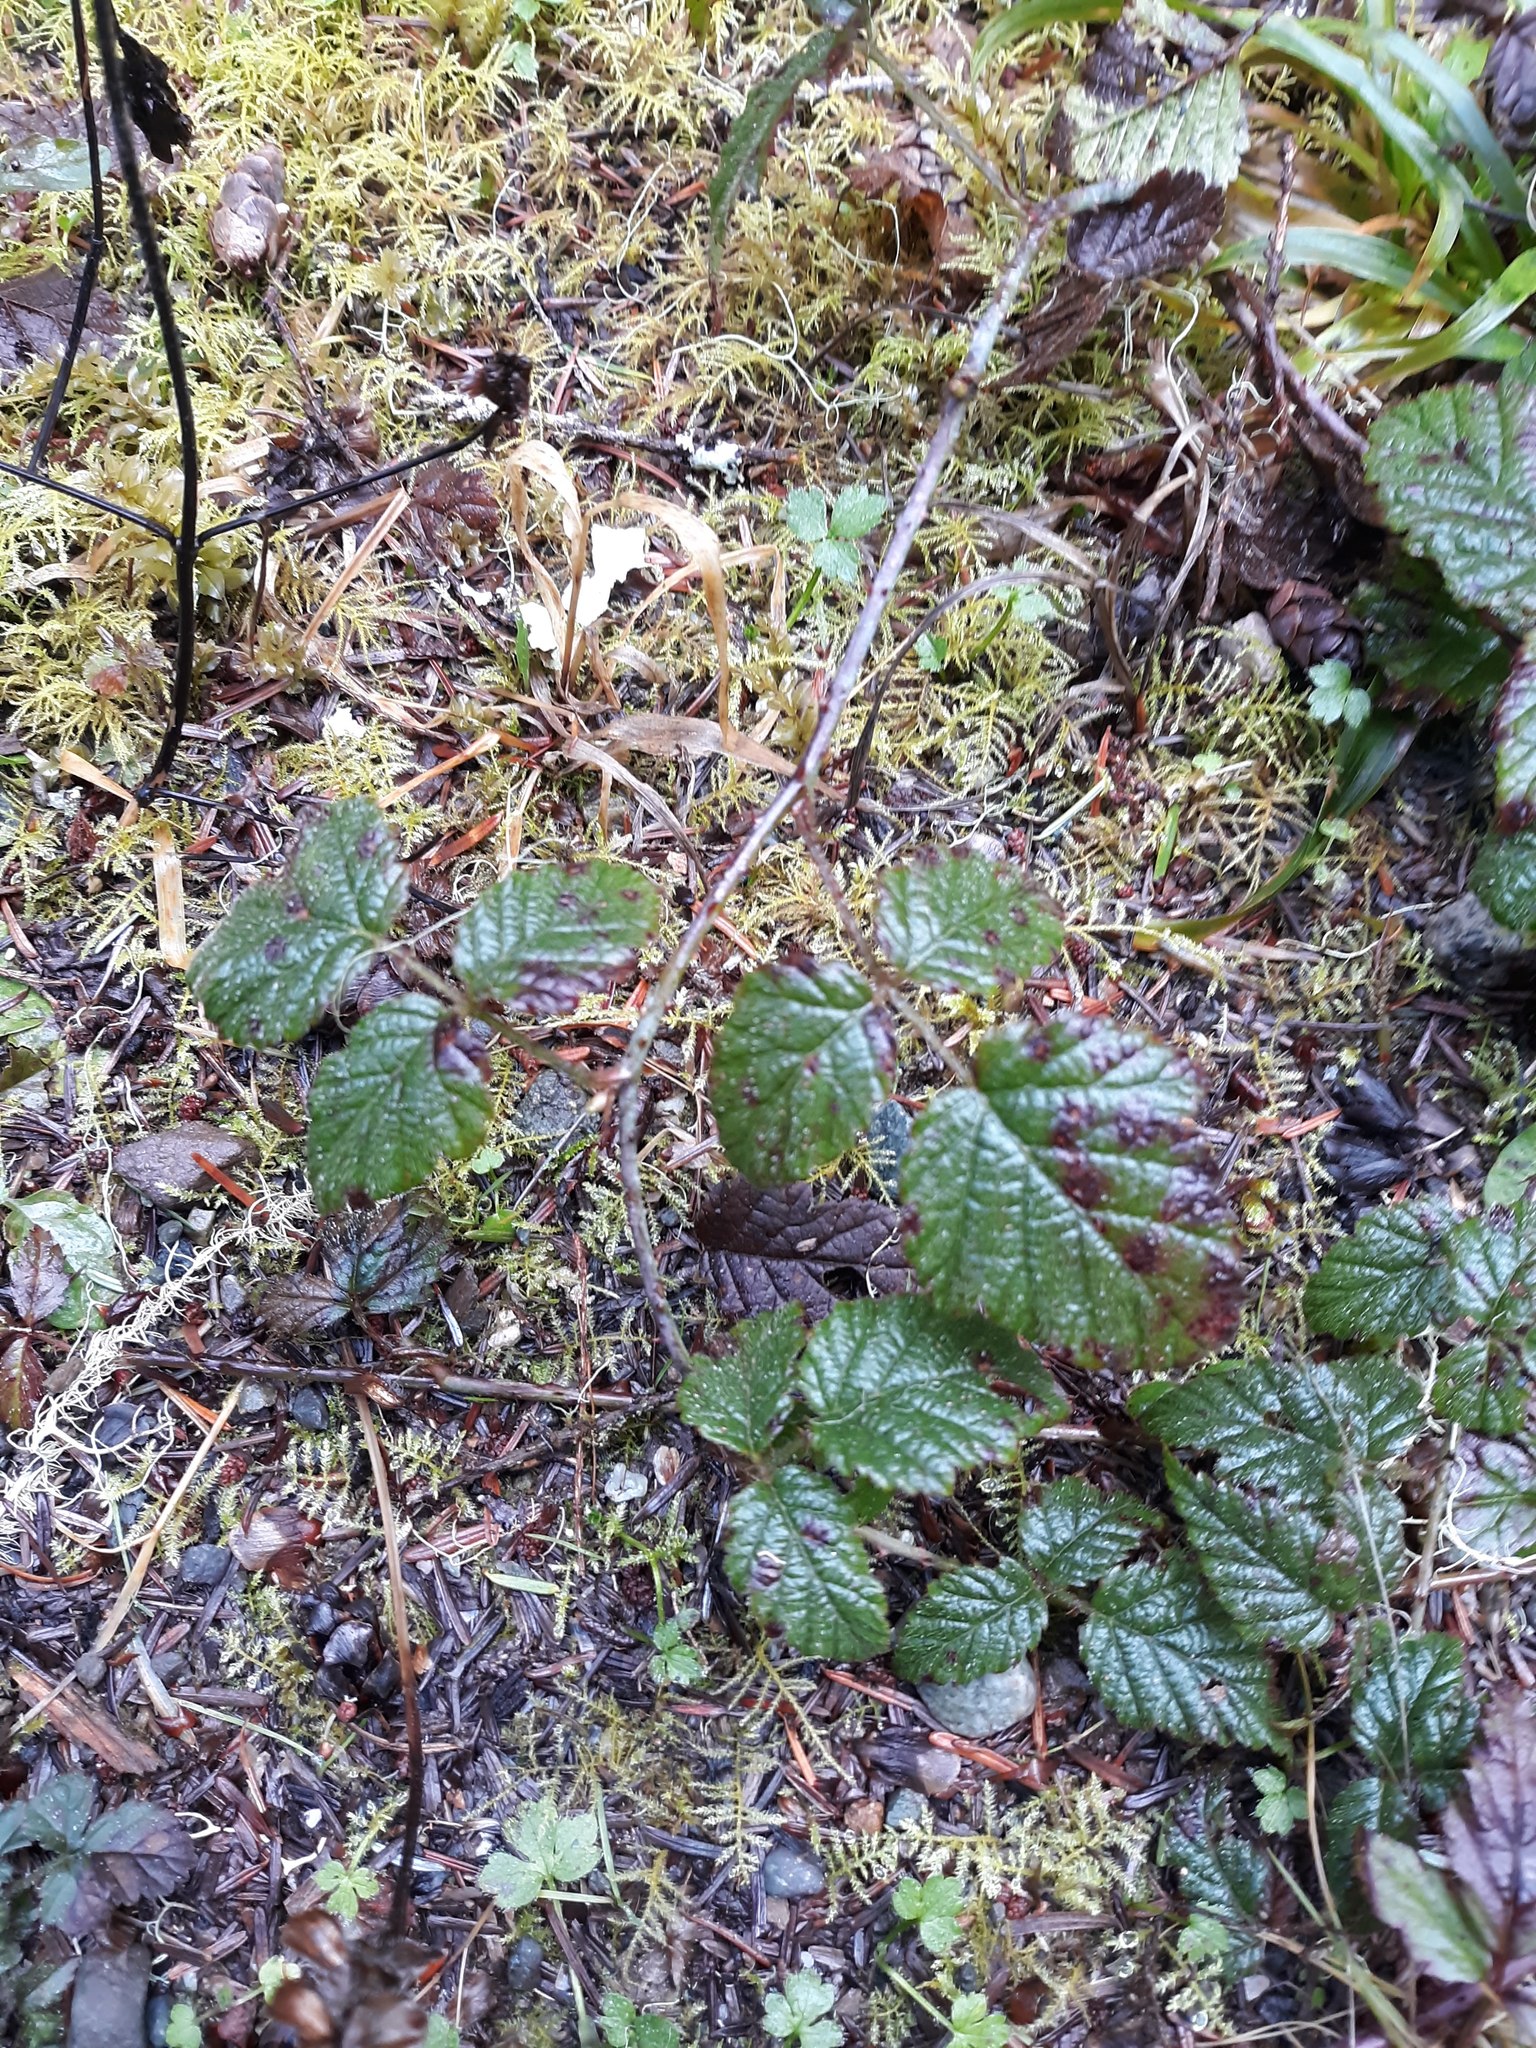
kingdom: Plantae
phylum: Tracheophyta
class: Magnoliopsida
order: Rosales
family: Rosaceae
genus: Rubus
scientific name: Rubus ursinus
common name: Pacific blackberry
